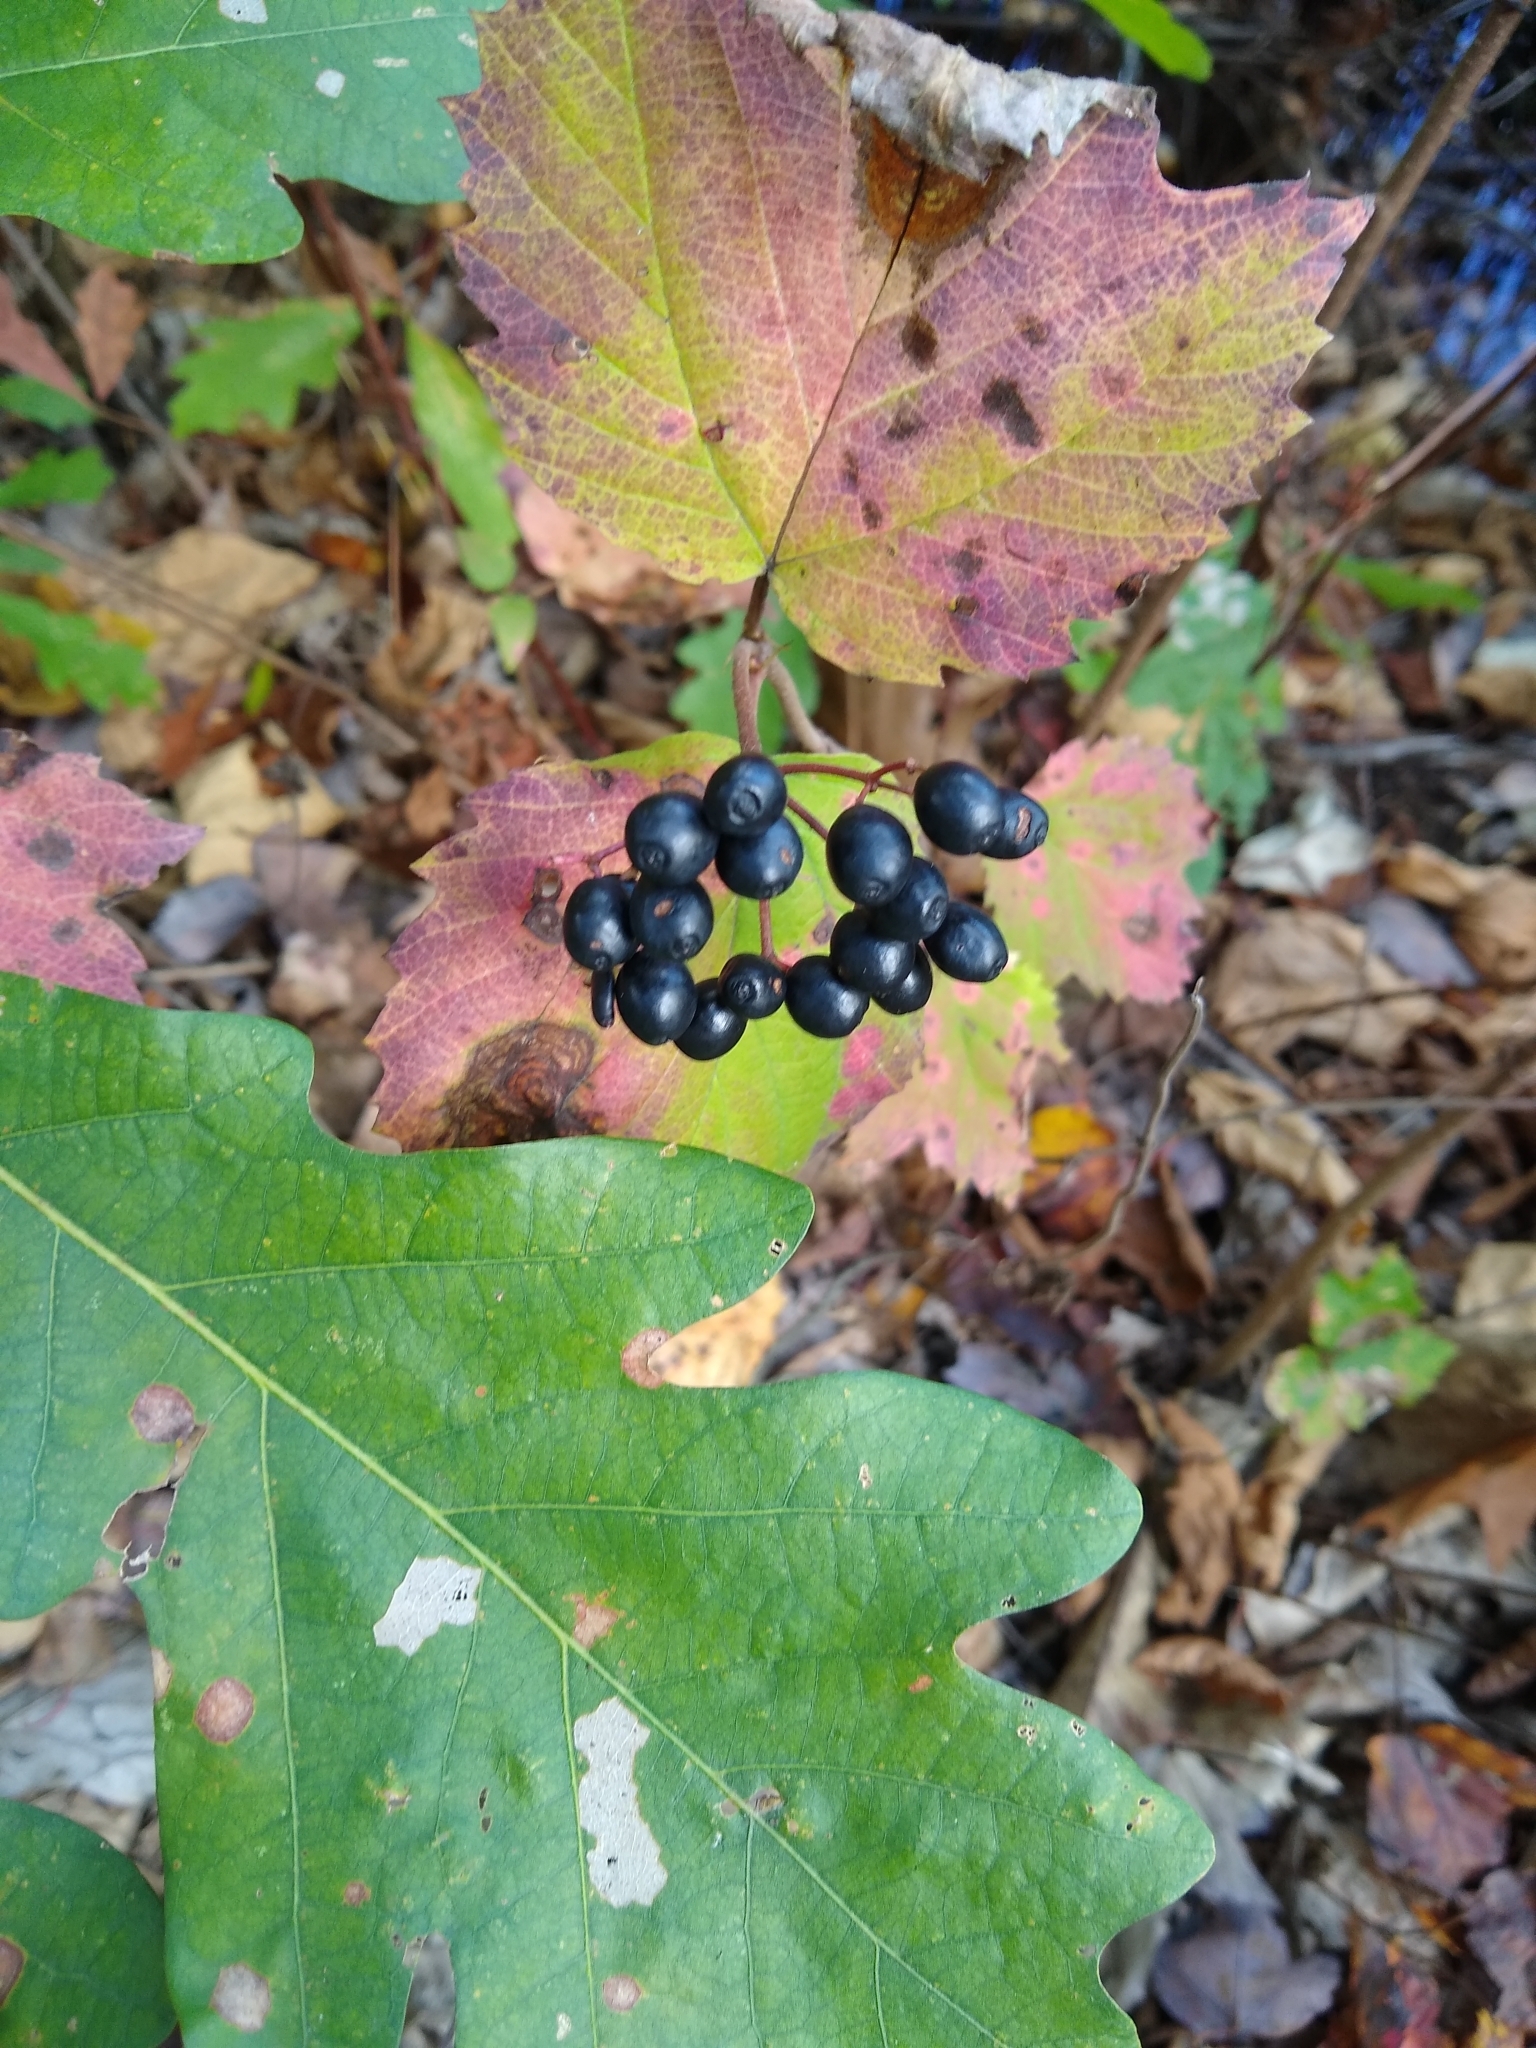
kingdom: Plantae
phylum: Tracheophyta
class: Magnoliopsida
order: Dipsacales
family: Viburnaceae
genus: Viburnum
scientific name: Viburnum acerifolium
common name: Dockmackie
